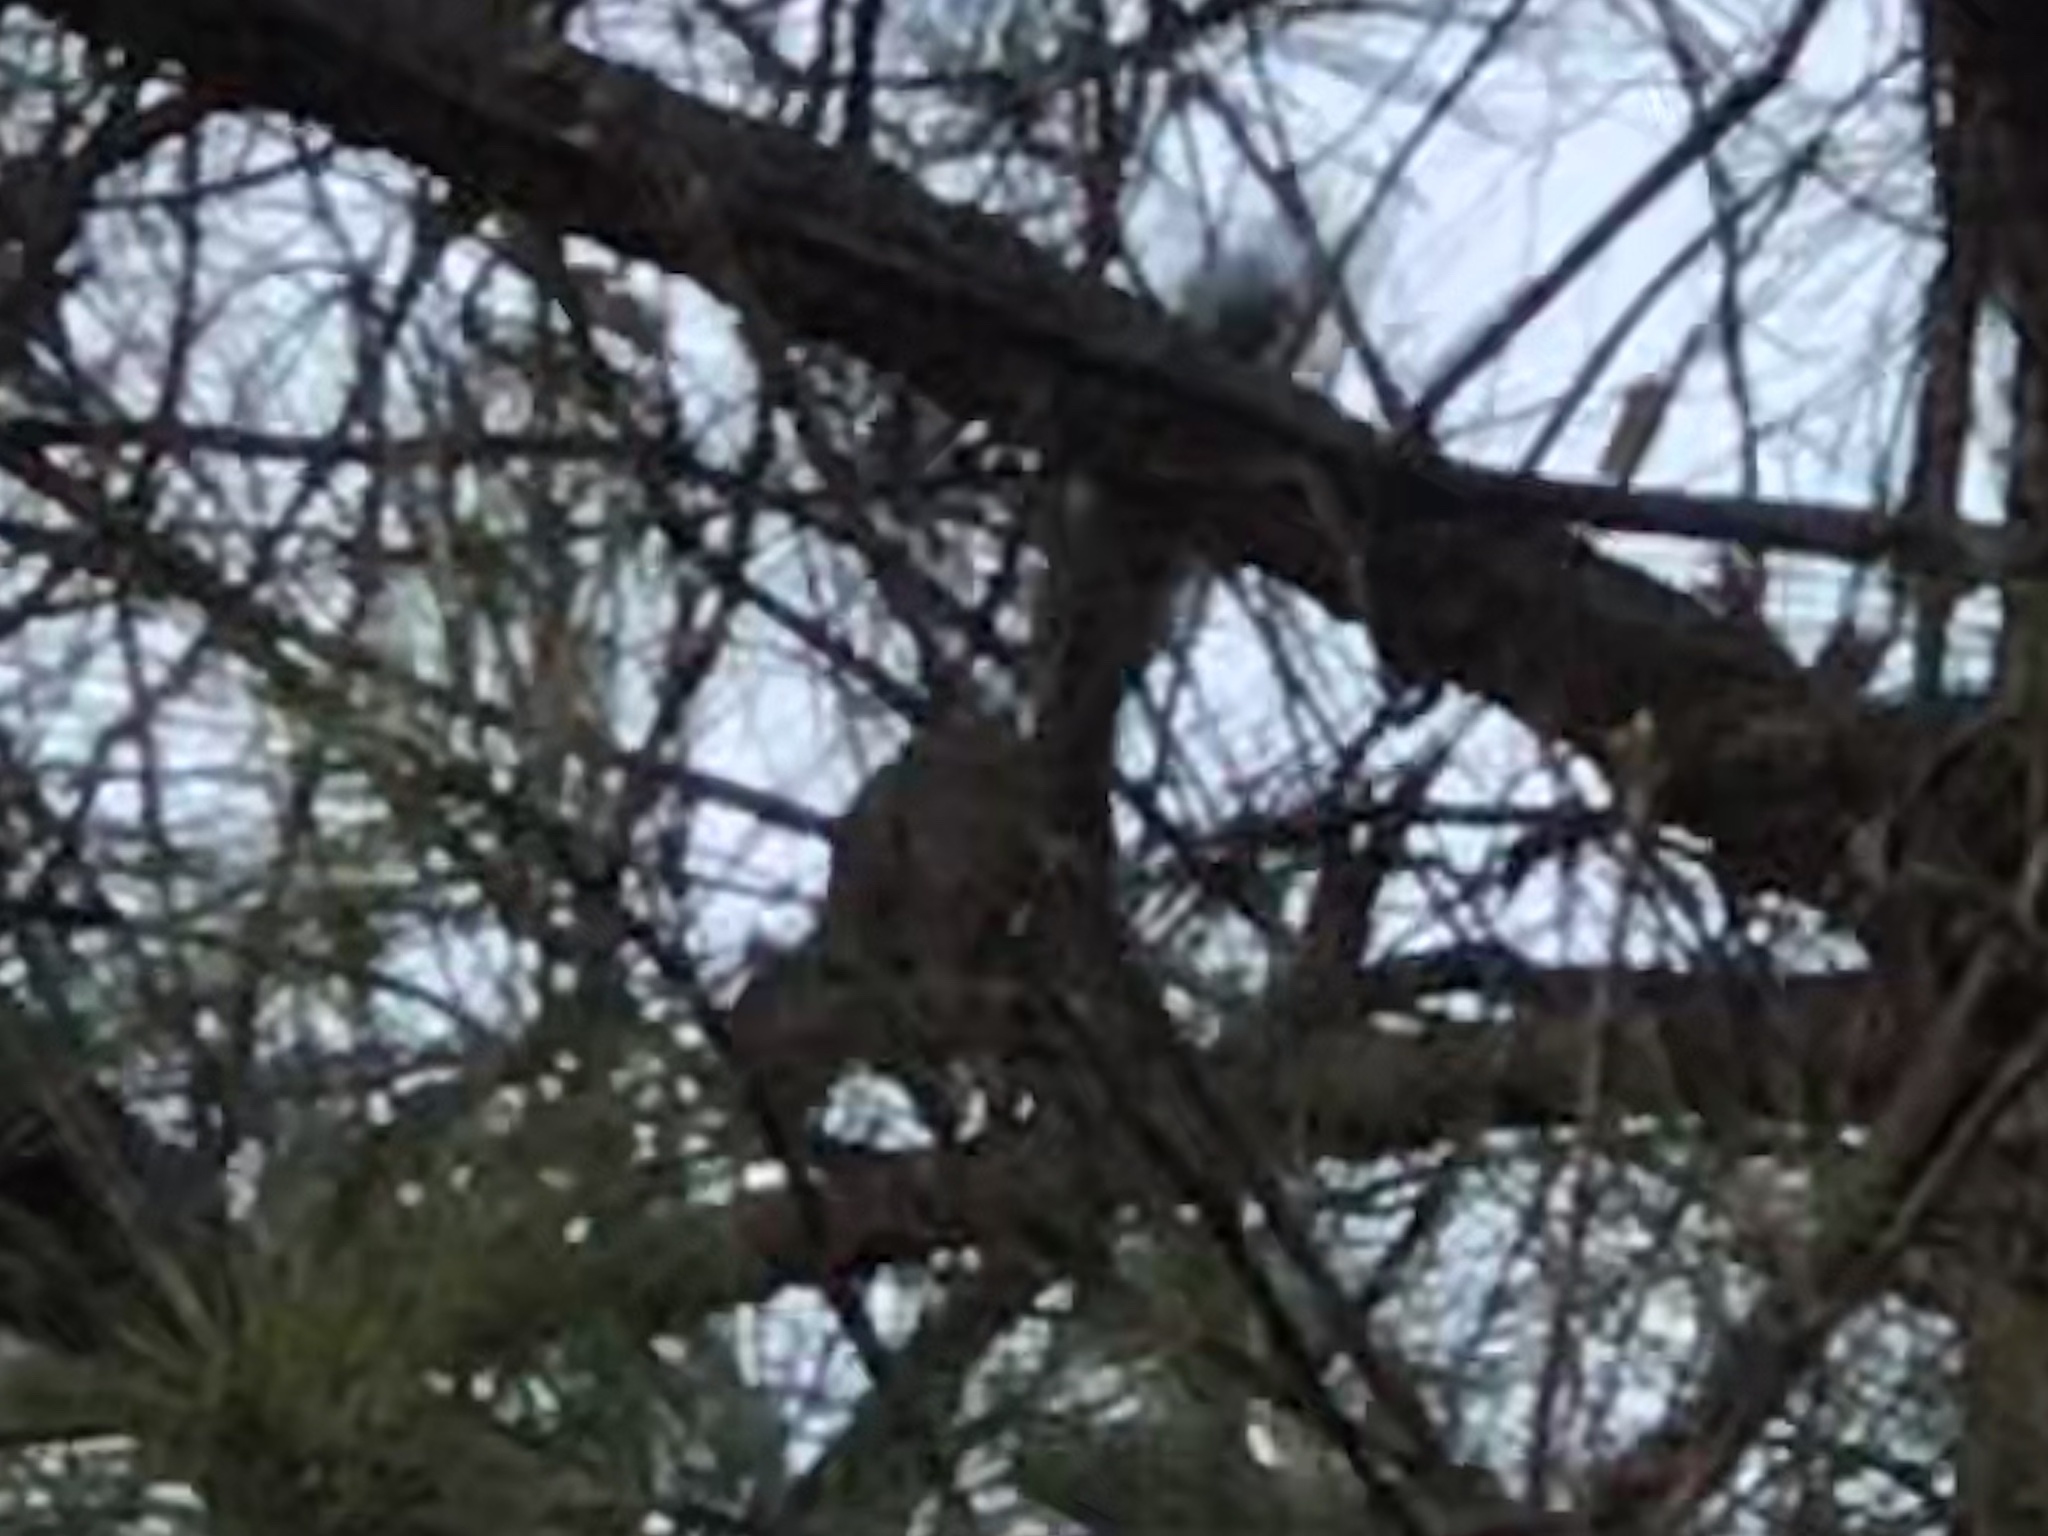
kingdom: Animalia
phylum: Chordata
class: Mammalia
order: Rodentia
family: Sciuridae
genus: Sciurus
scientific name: Sciurus carolinensis
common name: Eastern gray squirrel
